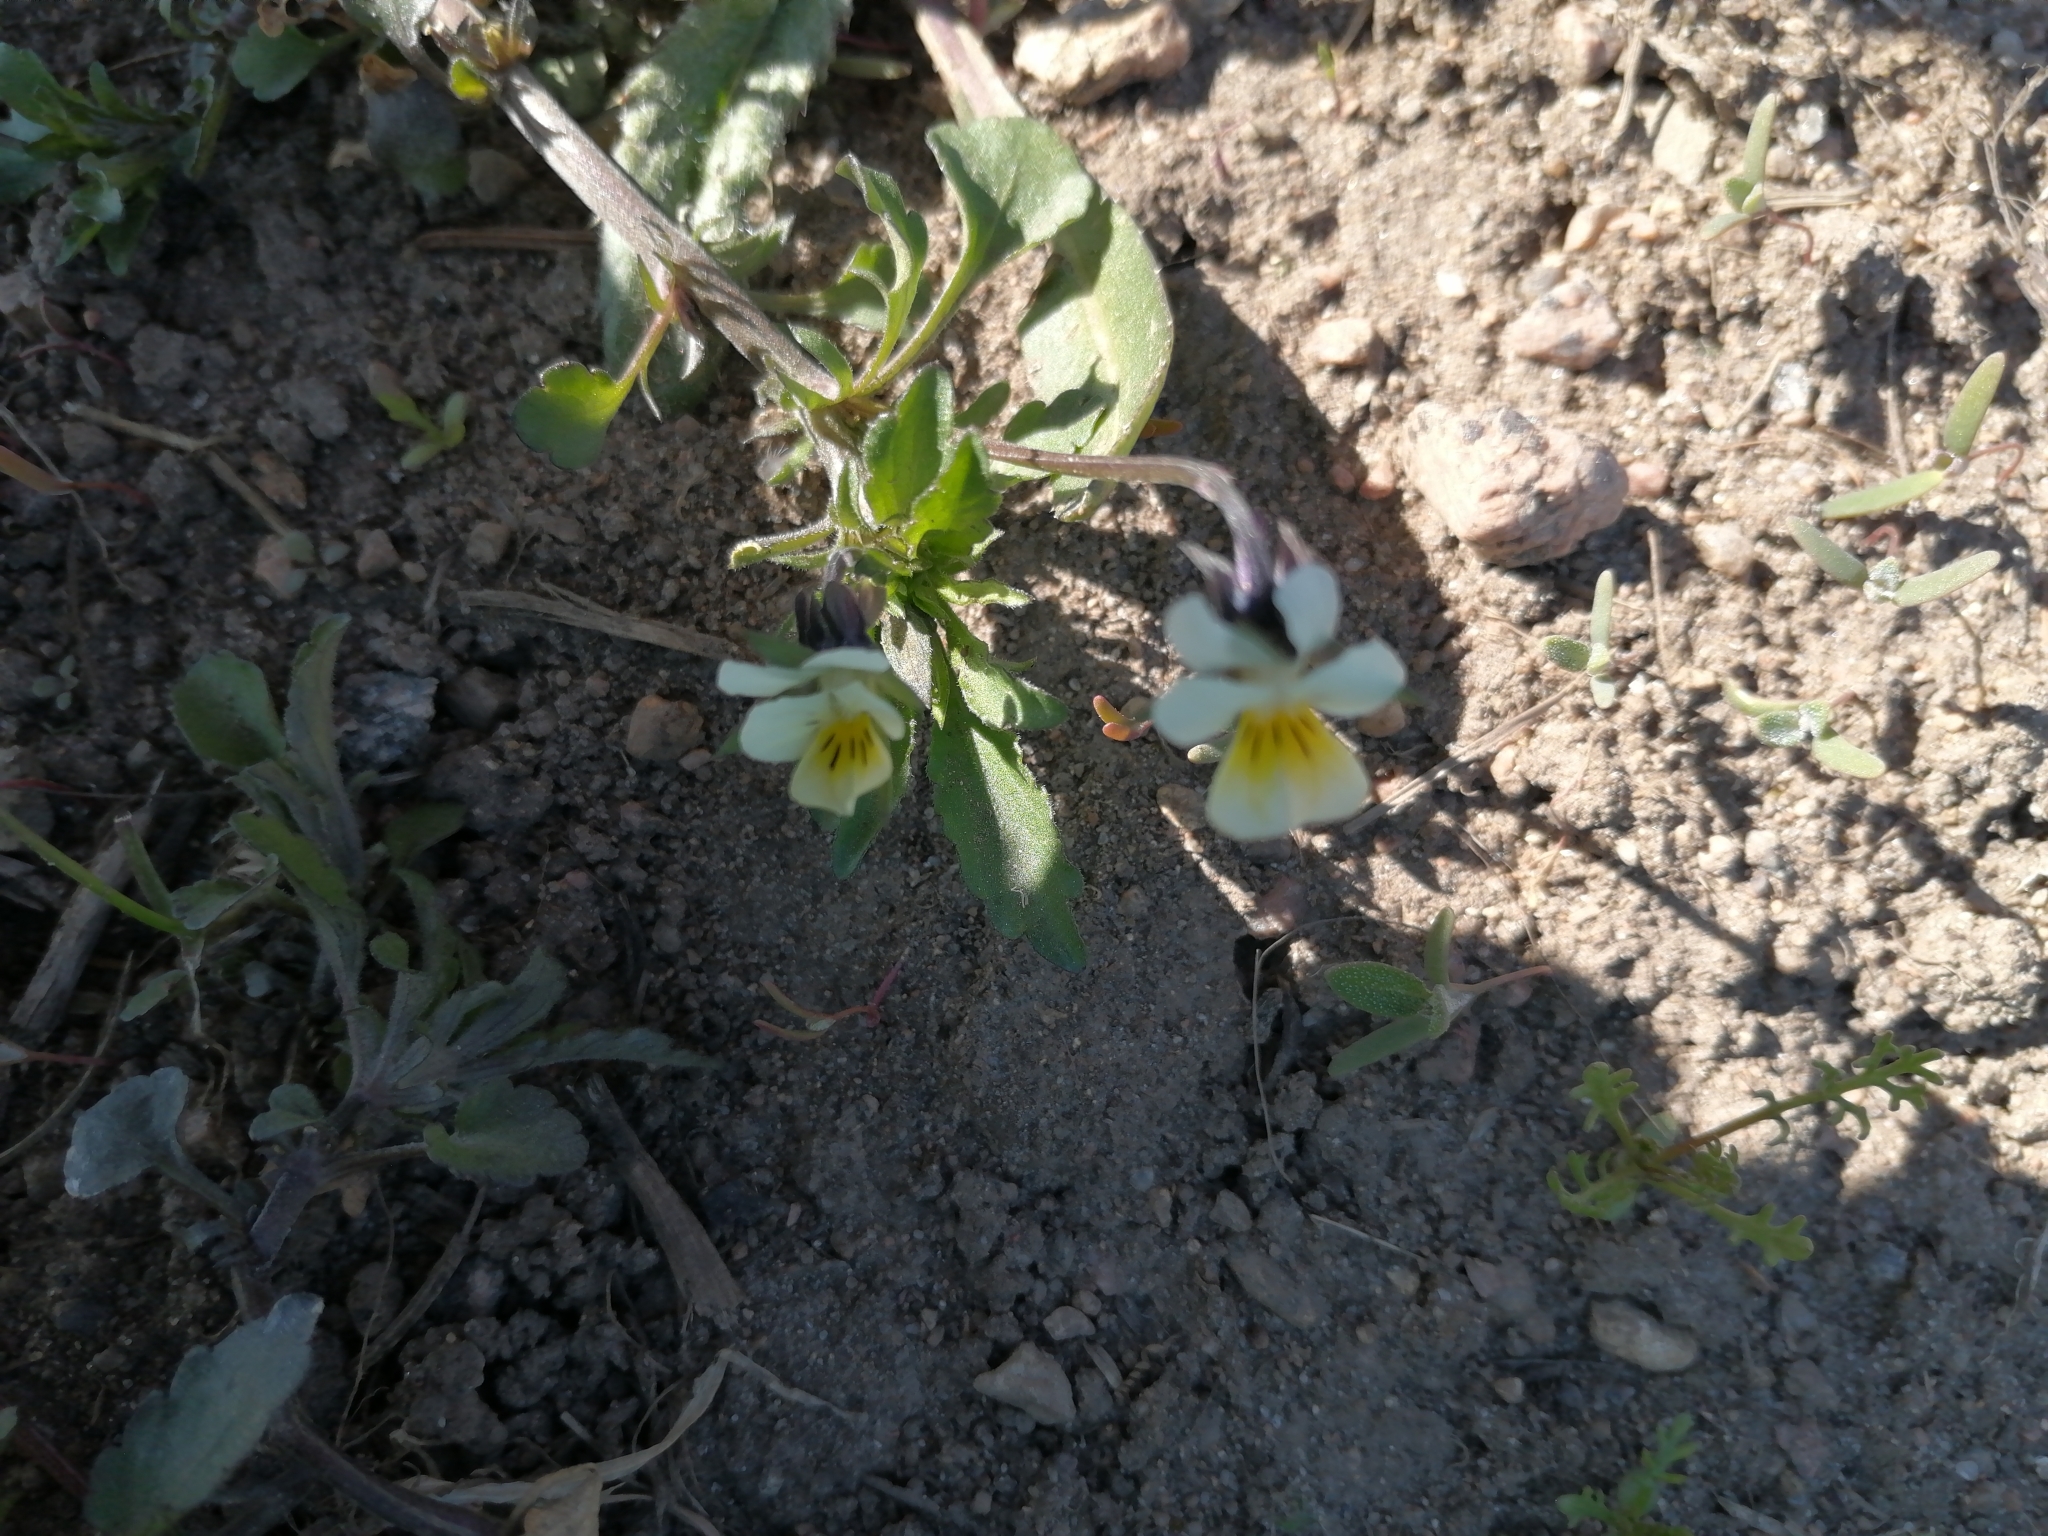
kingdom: Plantae
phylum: Tracheophyta
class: Magnoliopsida
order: Malpighiales
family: Violaceae
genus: Viola
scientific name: Viola arvensis
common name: Field pansy
